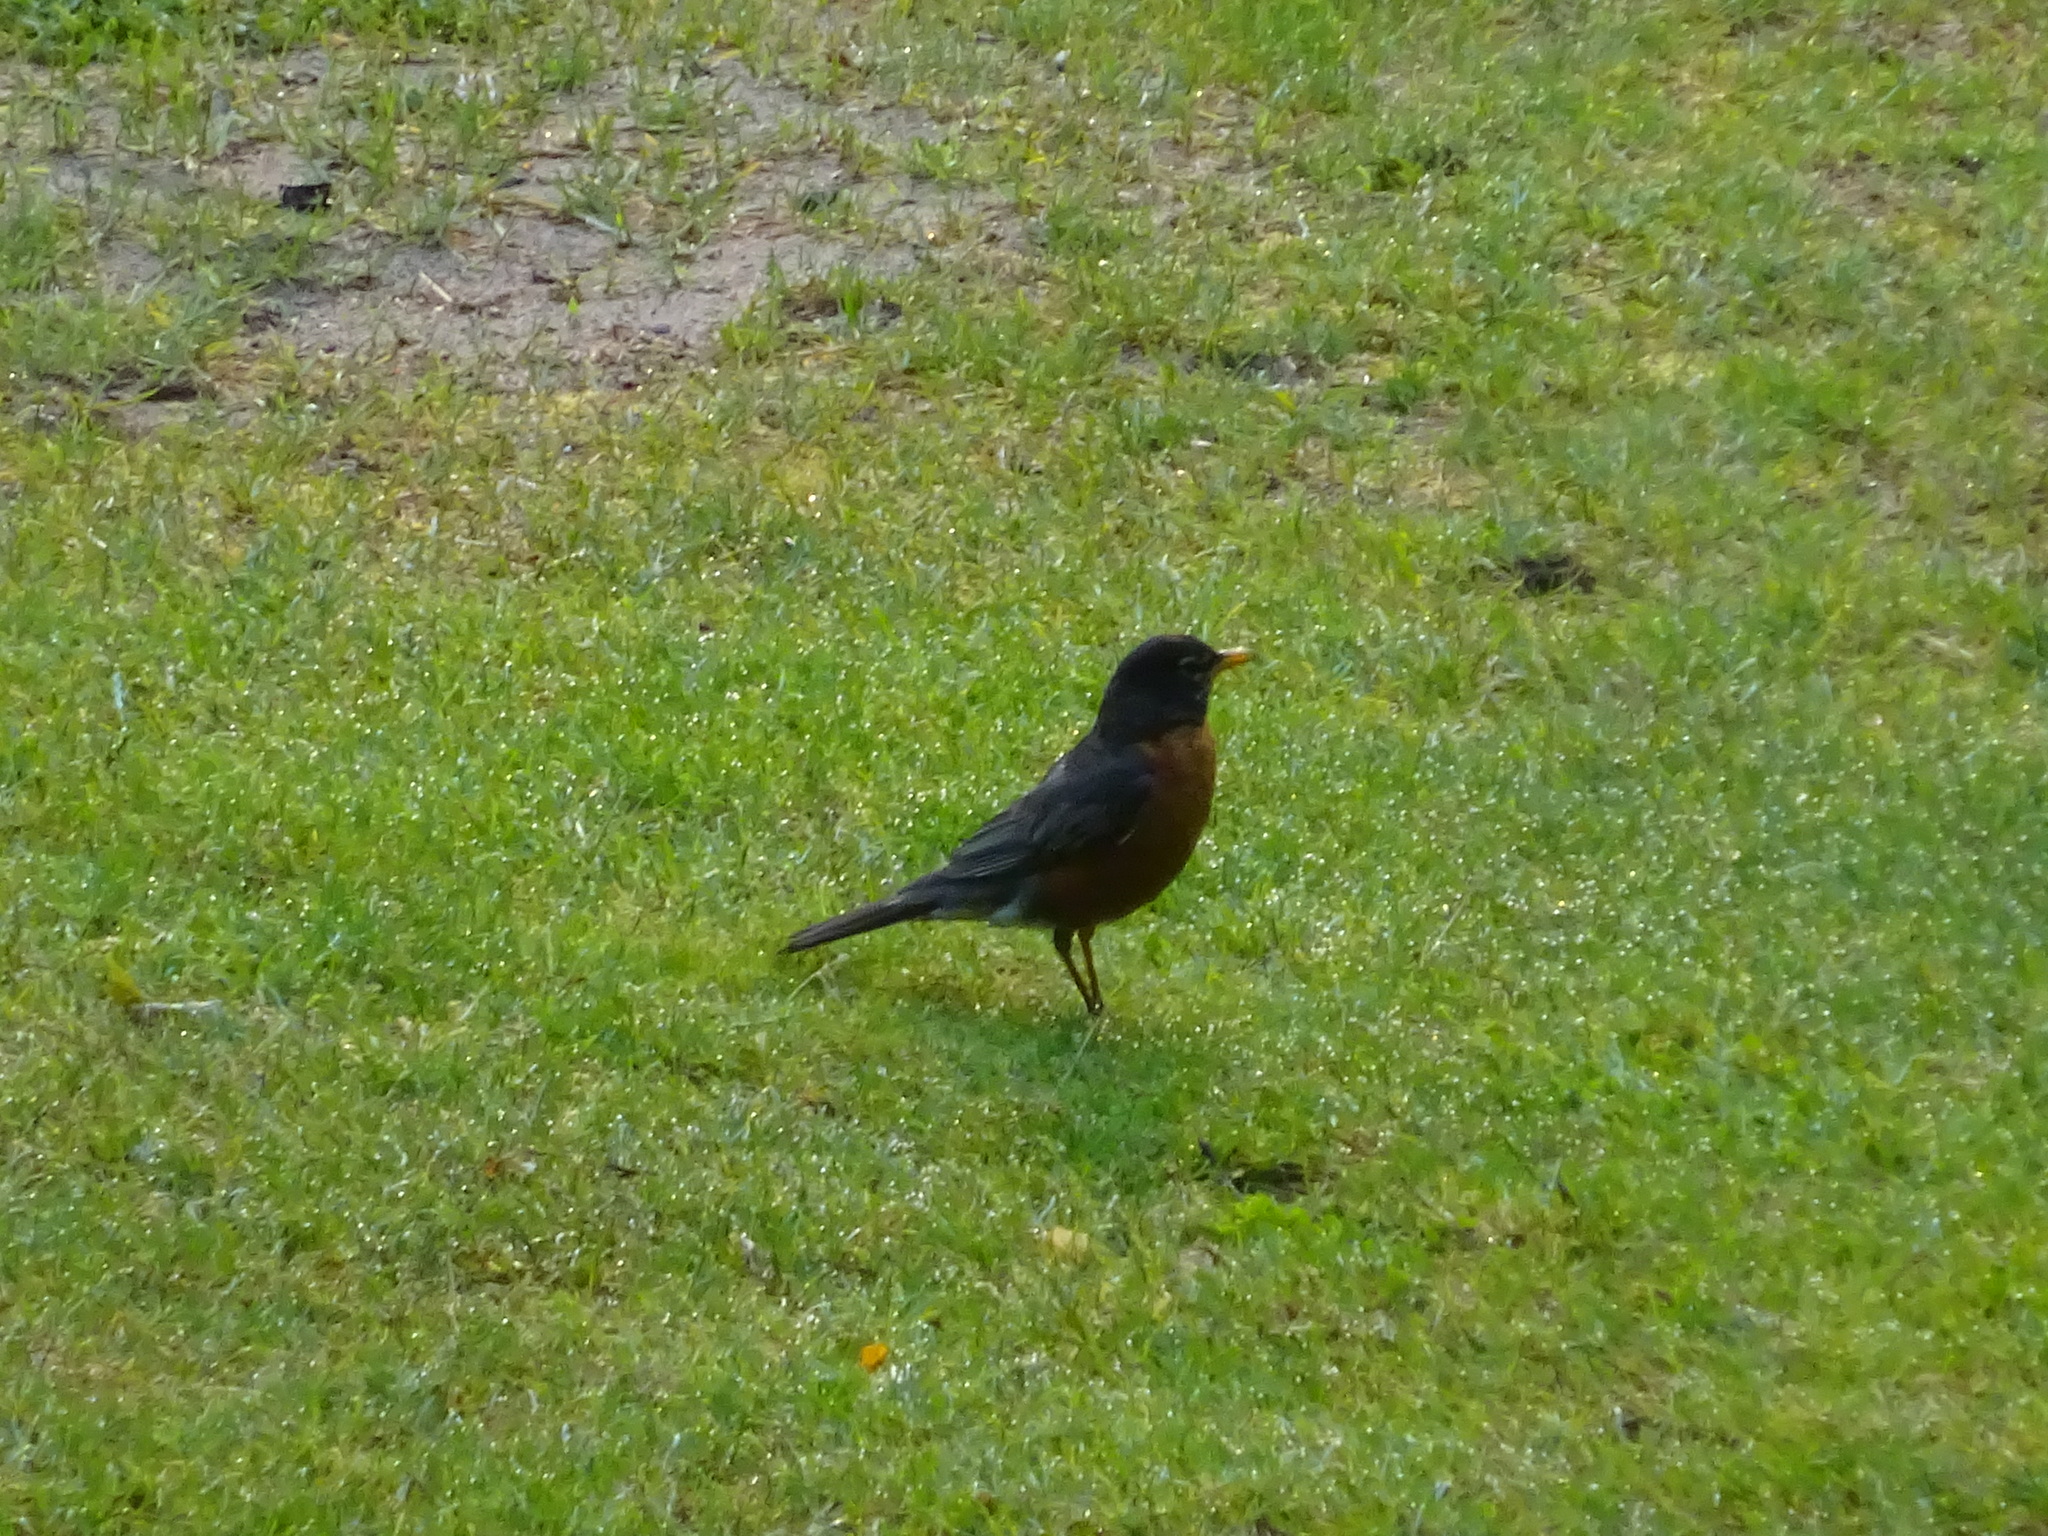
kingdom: Animalia
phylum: Chordata
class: Aves
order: Passeriformes
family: Turdidae
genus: Turdus
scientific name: Turdus migratorius
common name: American robin
